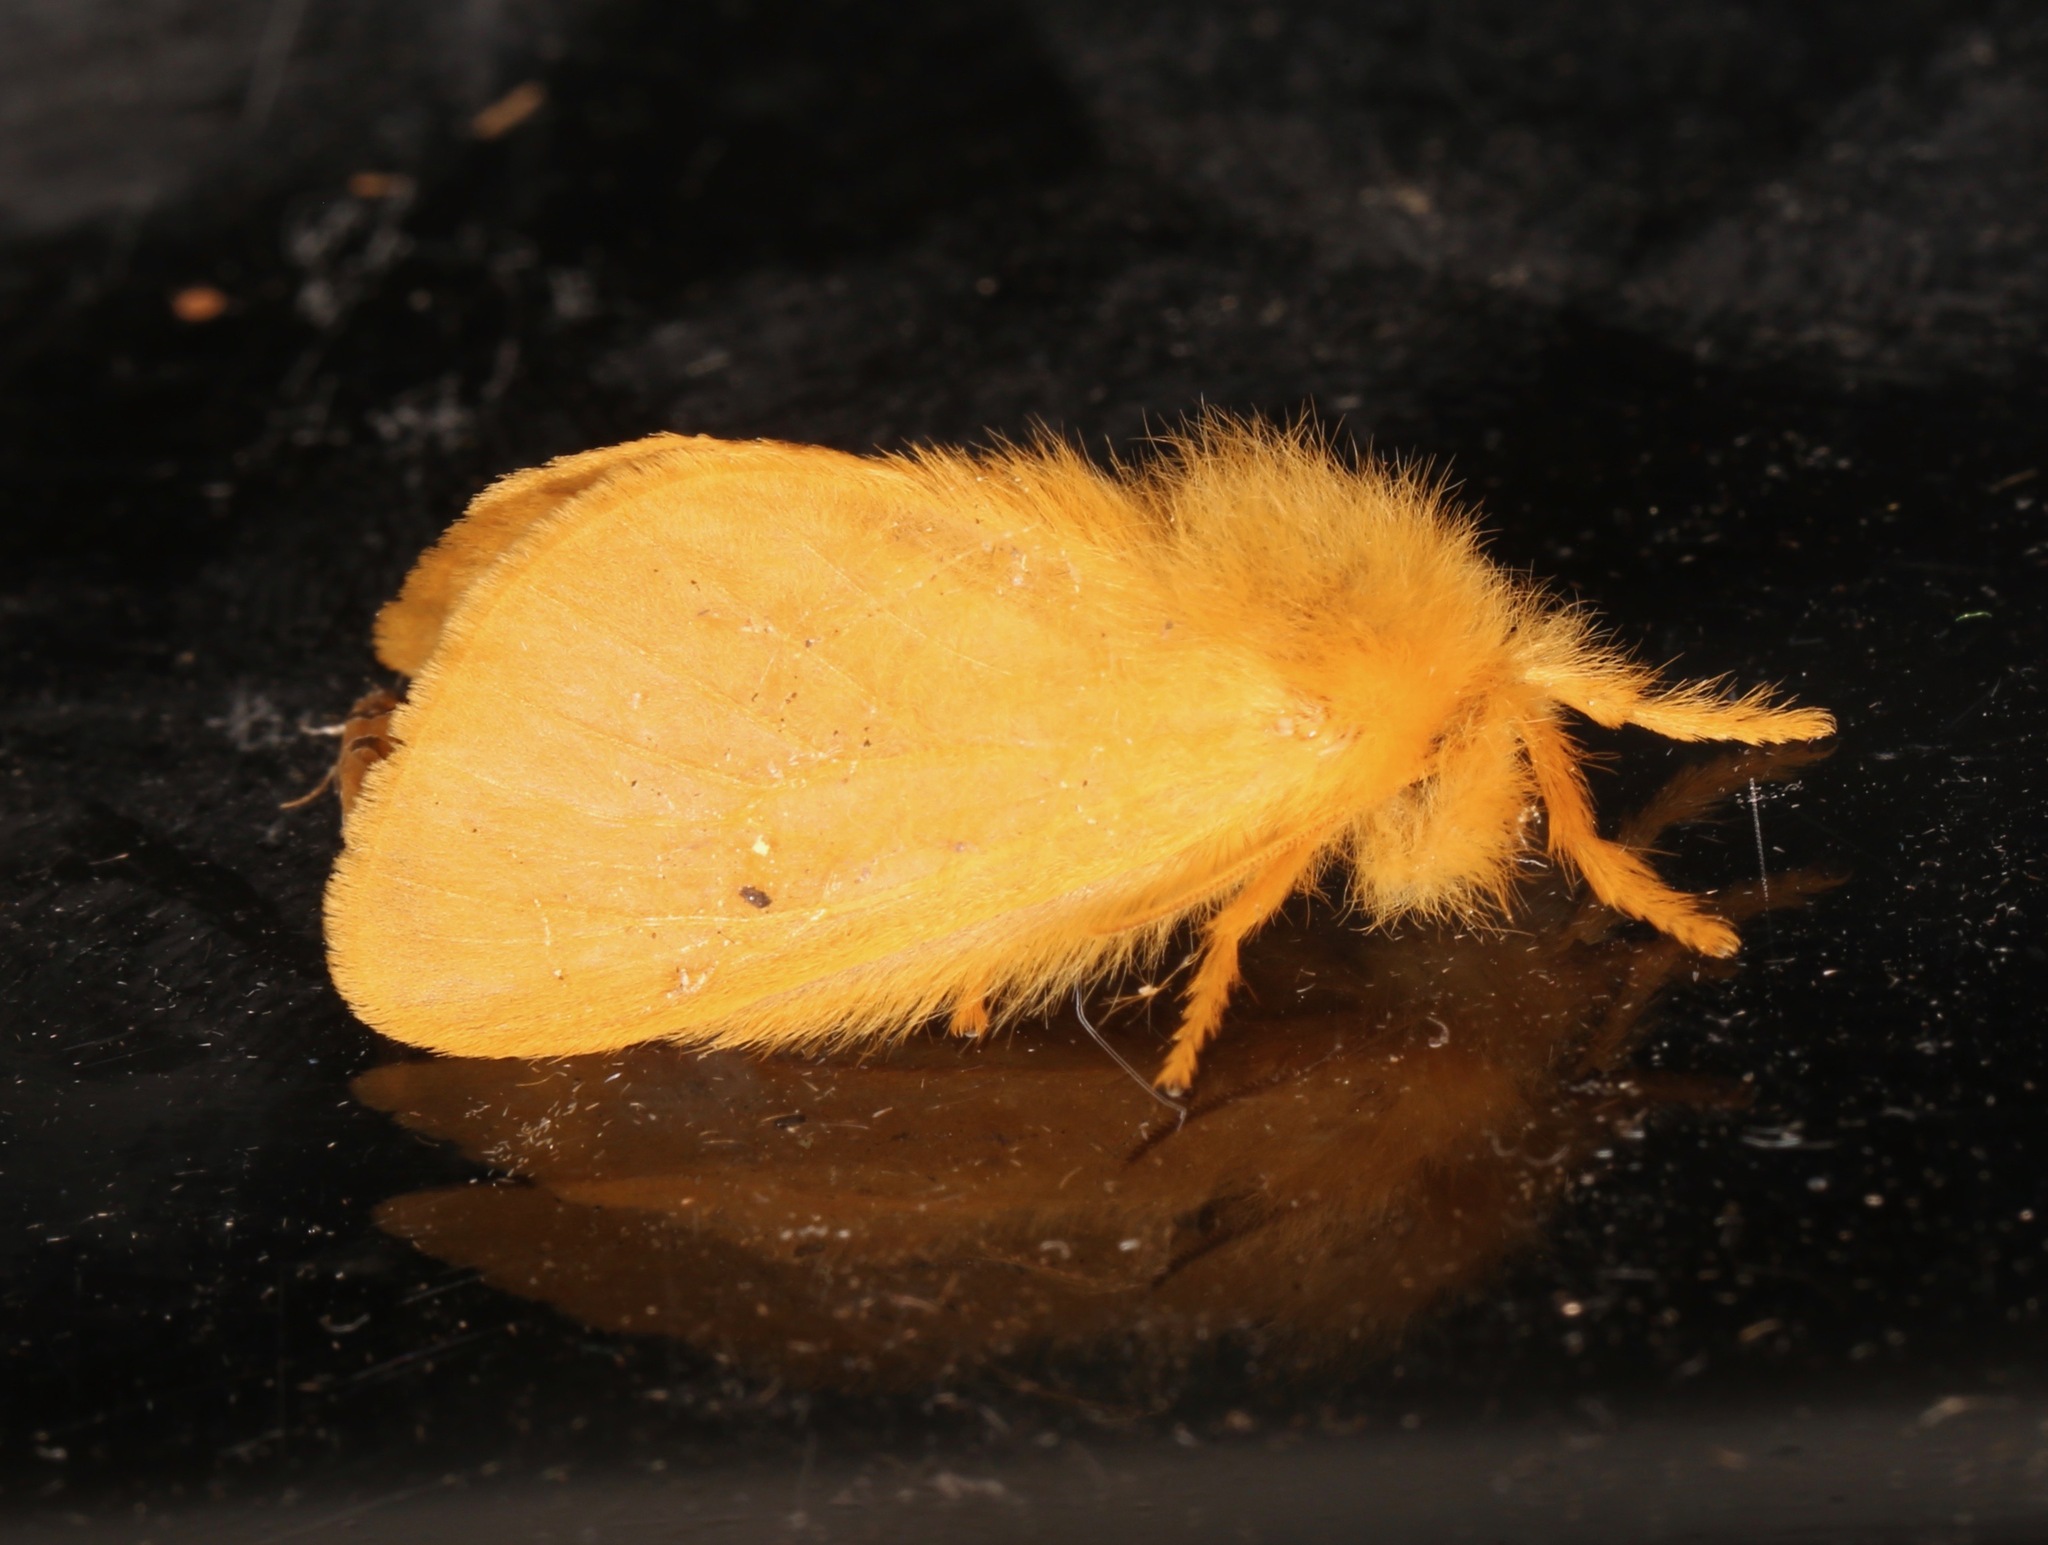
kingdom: Animalia
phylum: Arthropoda
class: Insecta
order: Lepidoptera
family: Megalopygidae
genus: Megalopyge
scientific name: Megalopyge pixidifera
